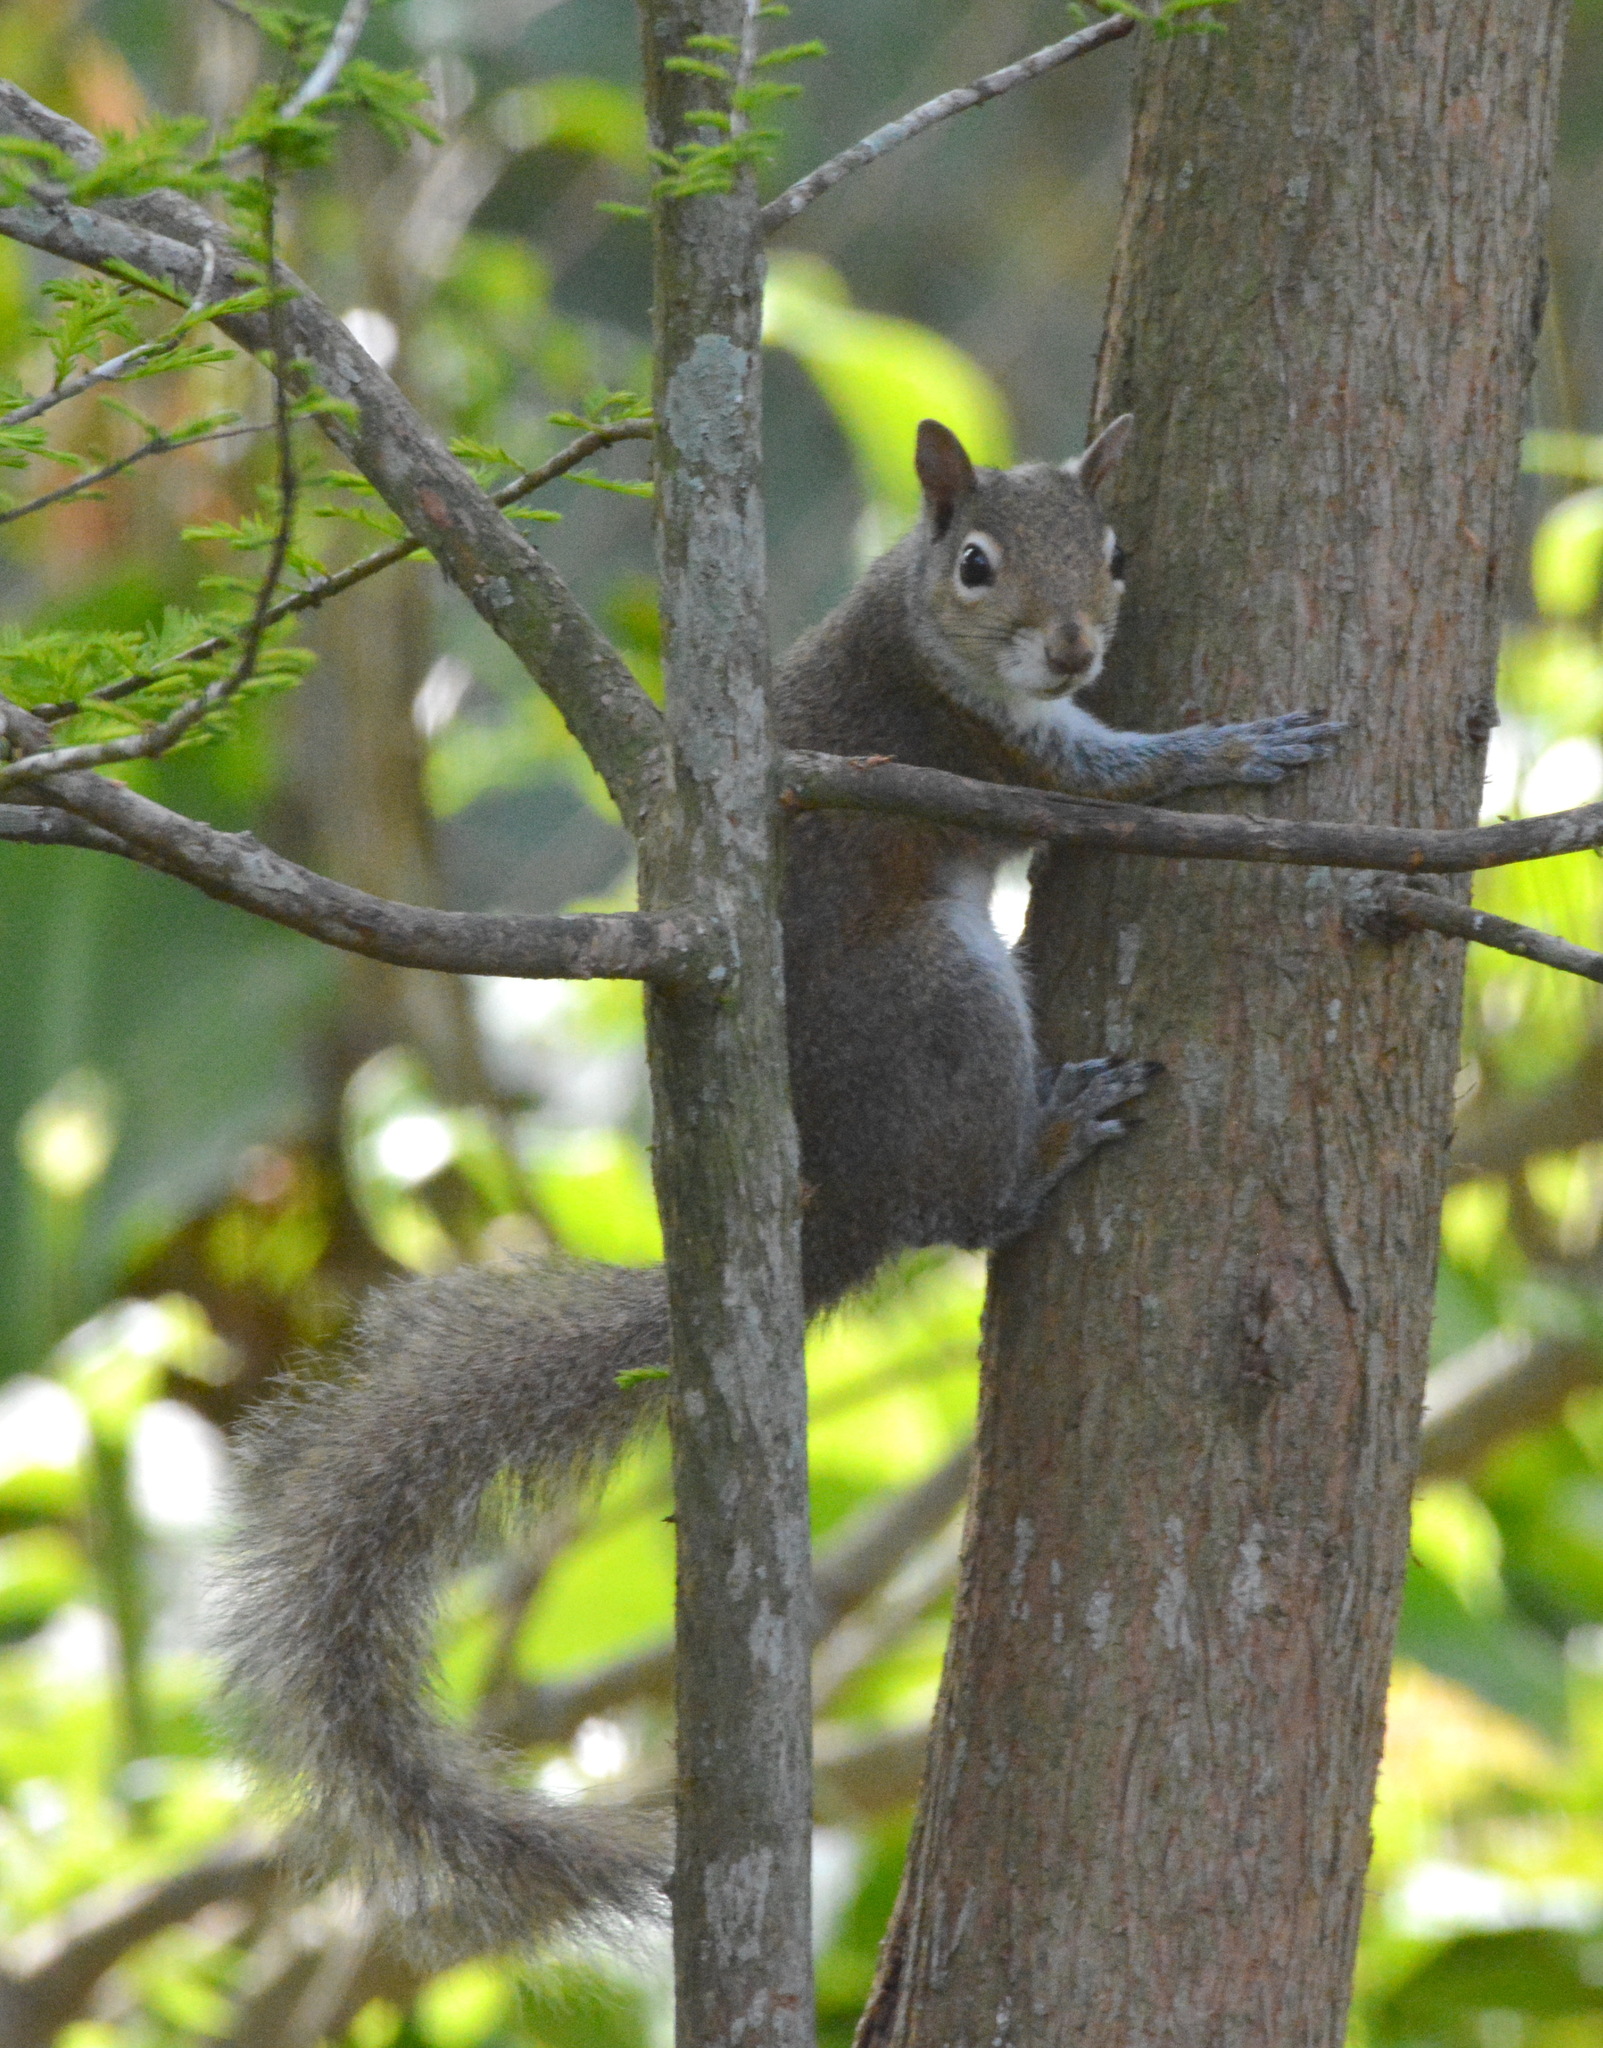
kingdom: Animalia
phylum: Chordata
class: Mammalia
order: Rodentia
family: Sciuridae
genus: Sciurus
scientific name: Sciurus carolinensis
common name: Eastern gray squirrel
